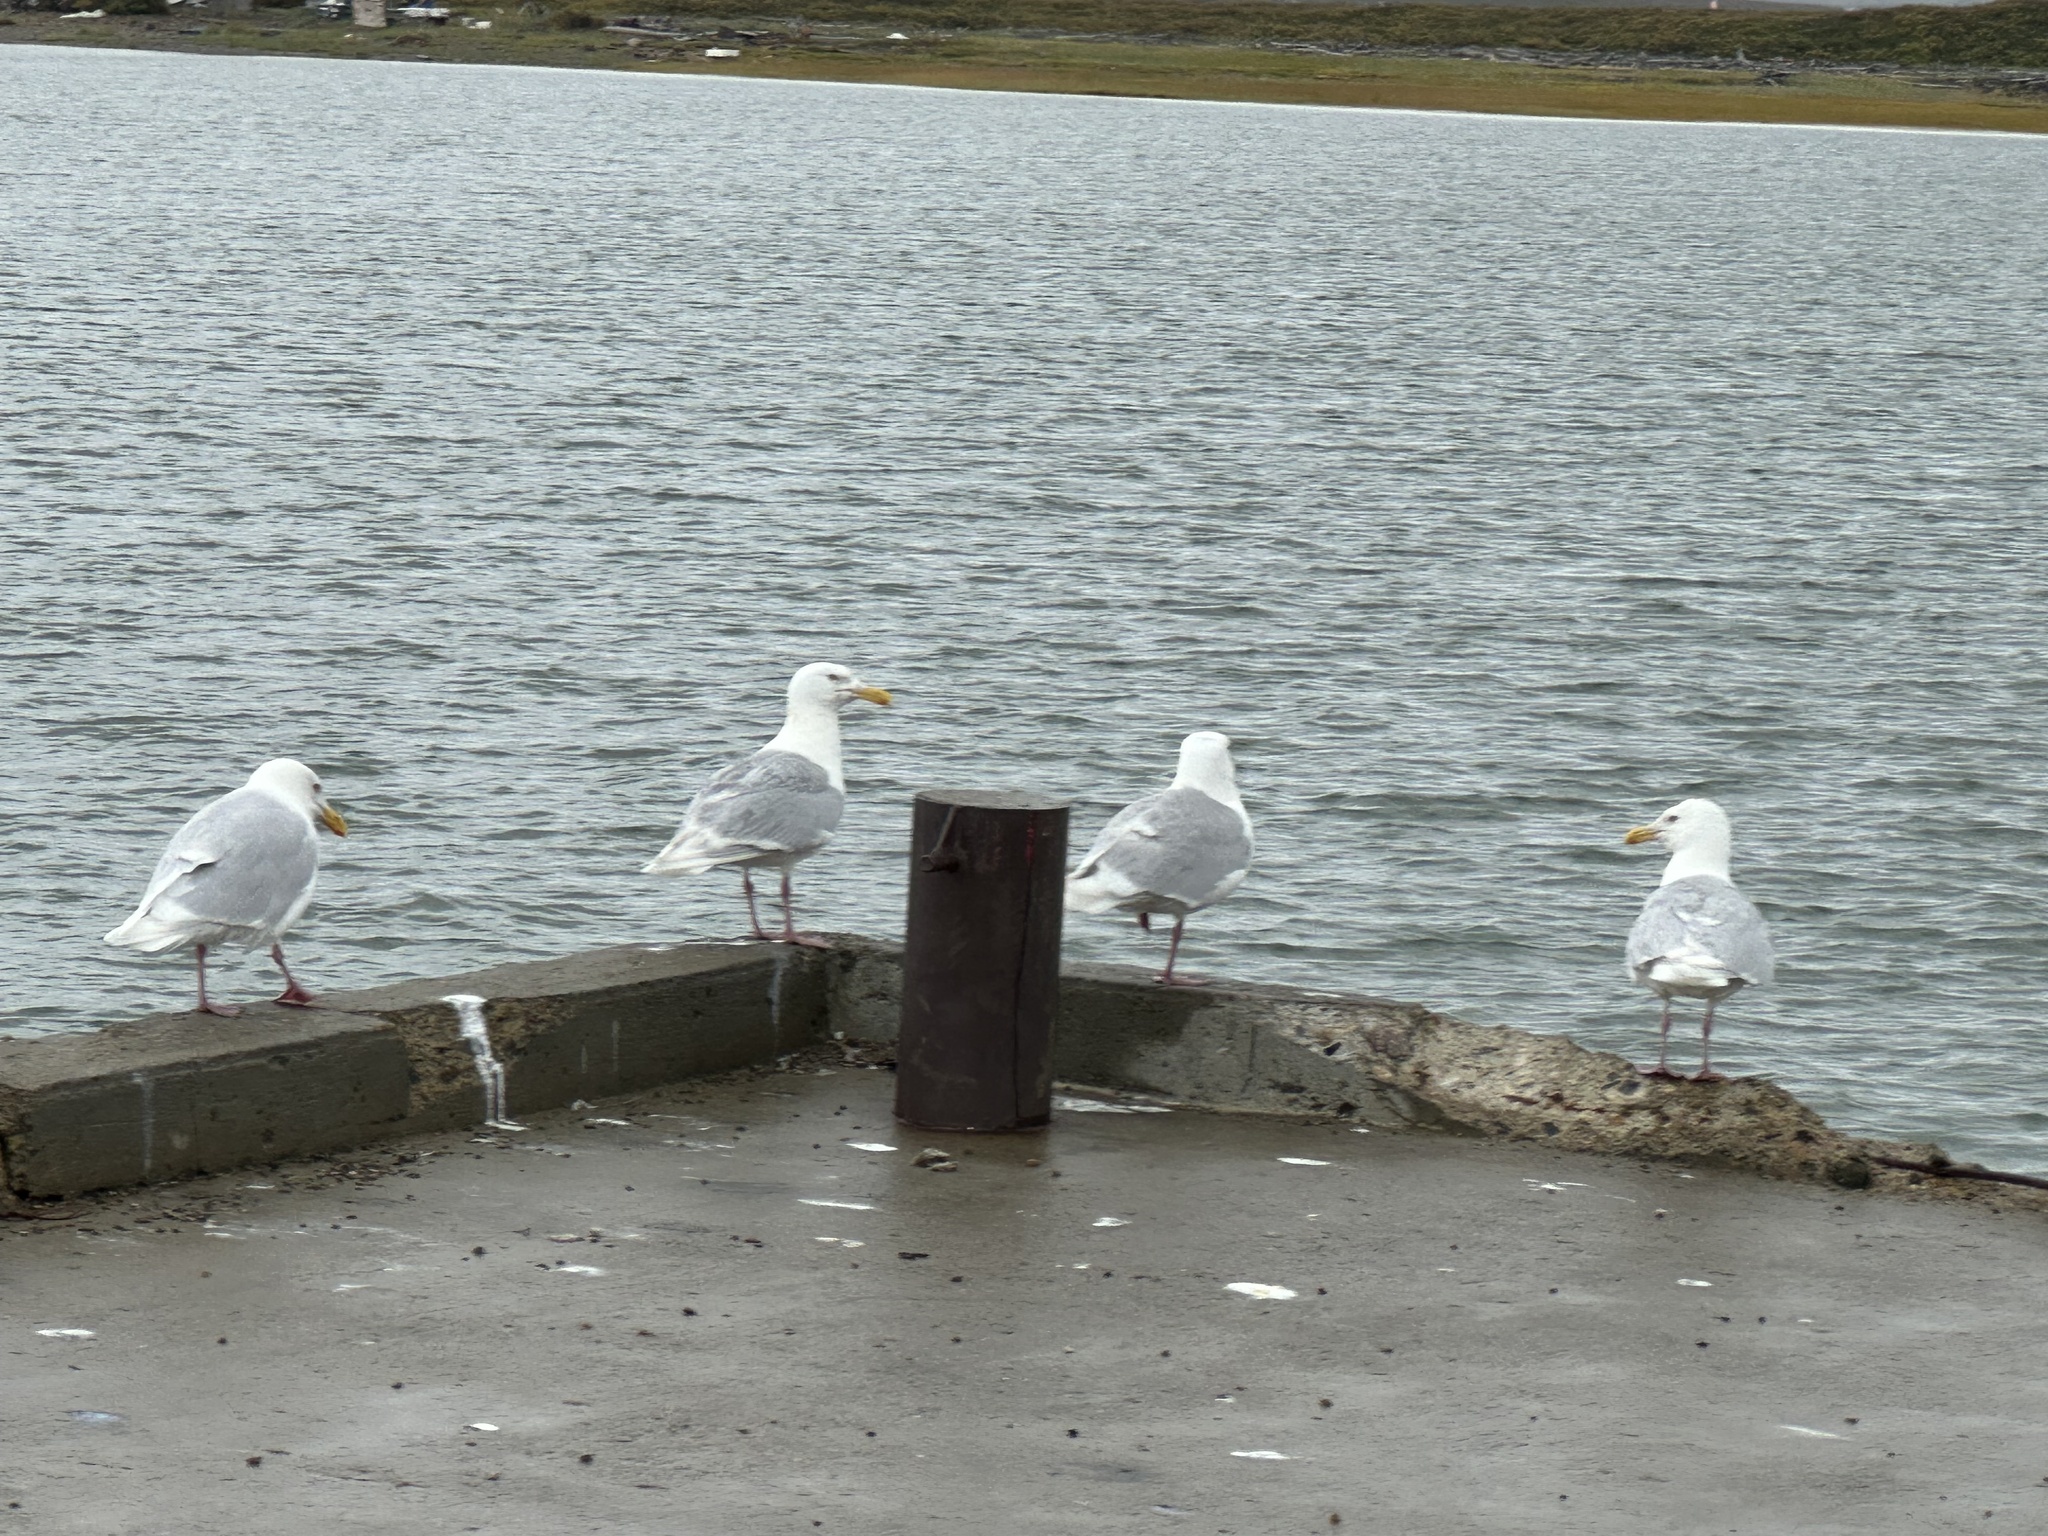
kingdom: Animalia
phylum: Chordata
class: Aves
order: Charadriiformes
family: Laridae
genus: Larus
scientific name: Larus hyperboreus
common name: Glaucous gull
